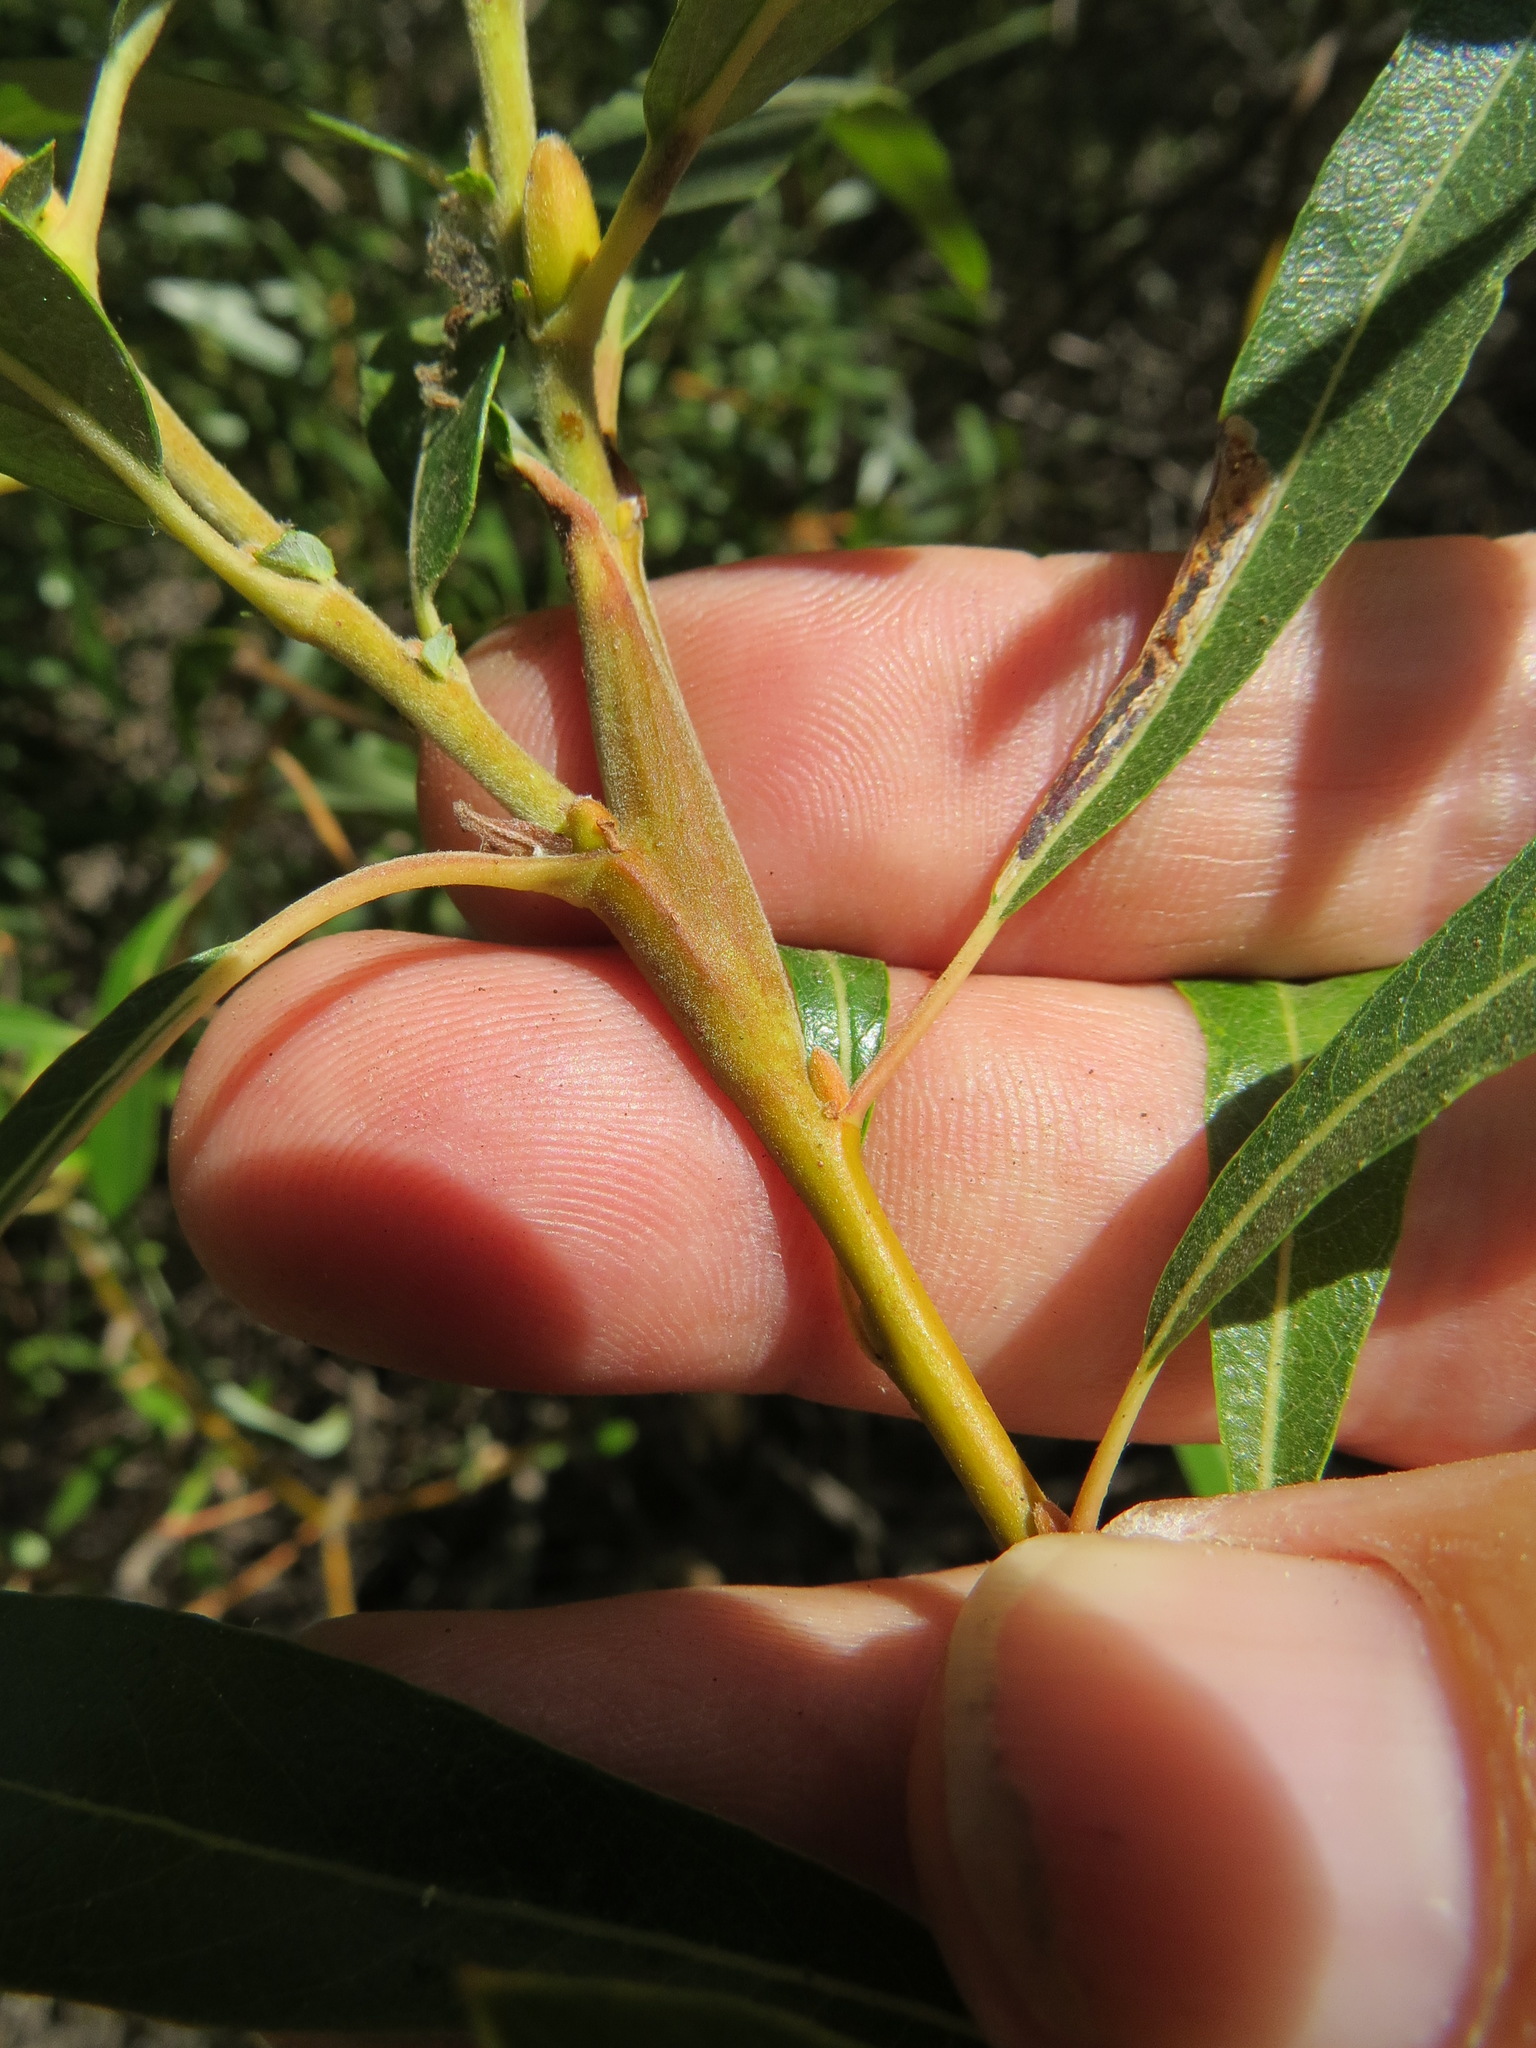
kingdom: Animalia
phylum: Arthropoda
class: Insecta
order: Diptera
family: Cecidomyiidae
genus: Thecodiplosis
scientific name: Thecodiplosis pinirigidae
